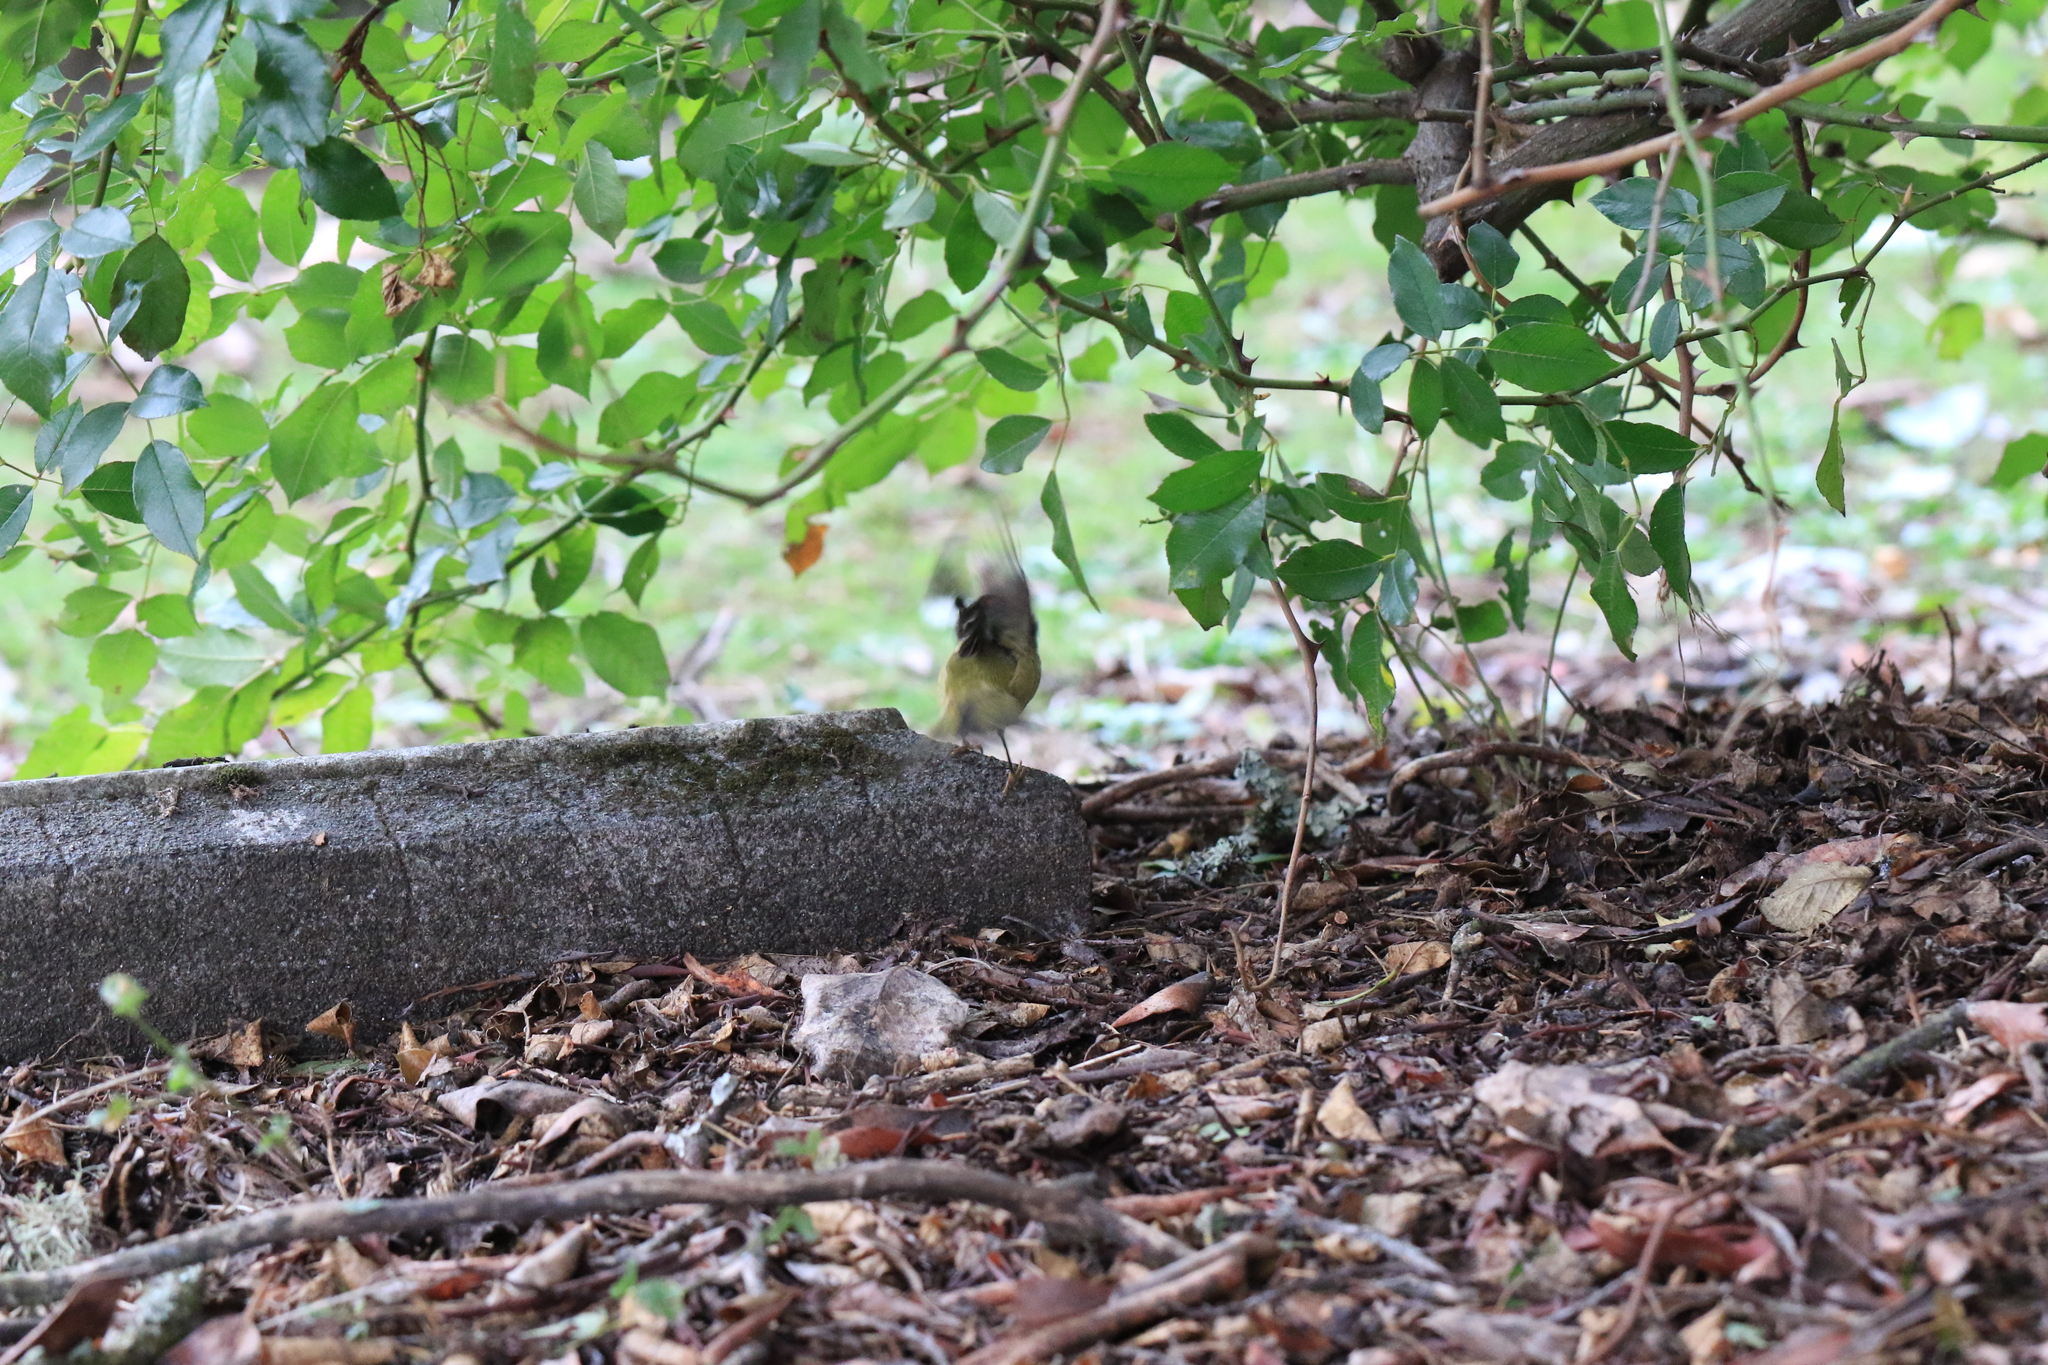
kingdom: Animalia
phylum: Chordata
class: Aves
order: Passeriformes
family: Regulidae
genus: Regulus
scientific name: Regulus calendula
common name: Ruby-crowned kinglet
